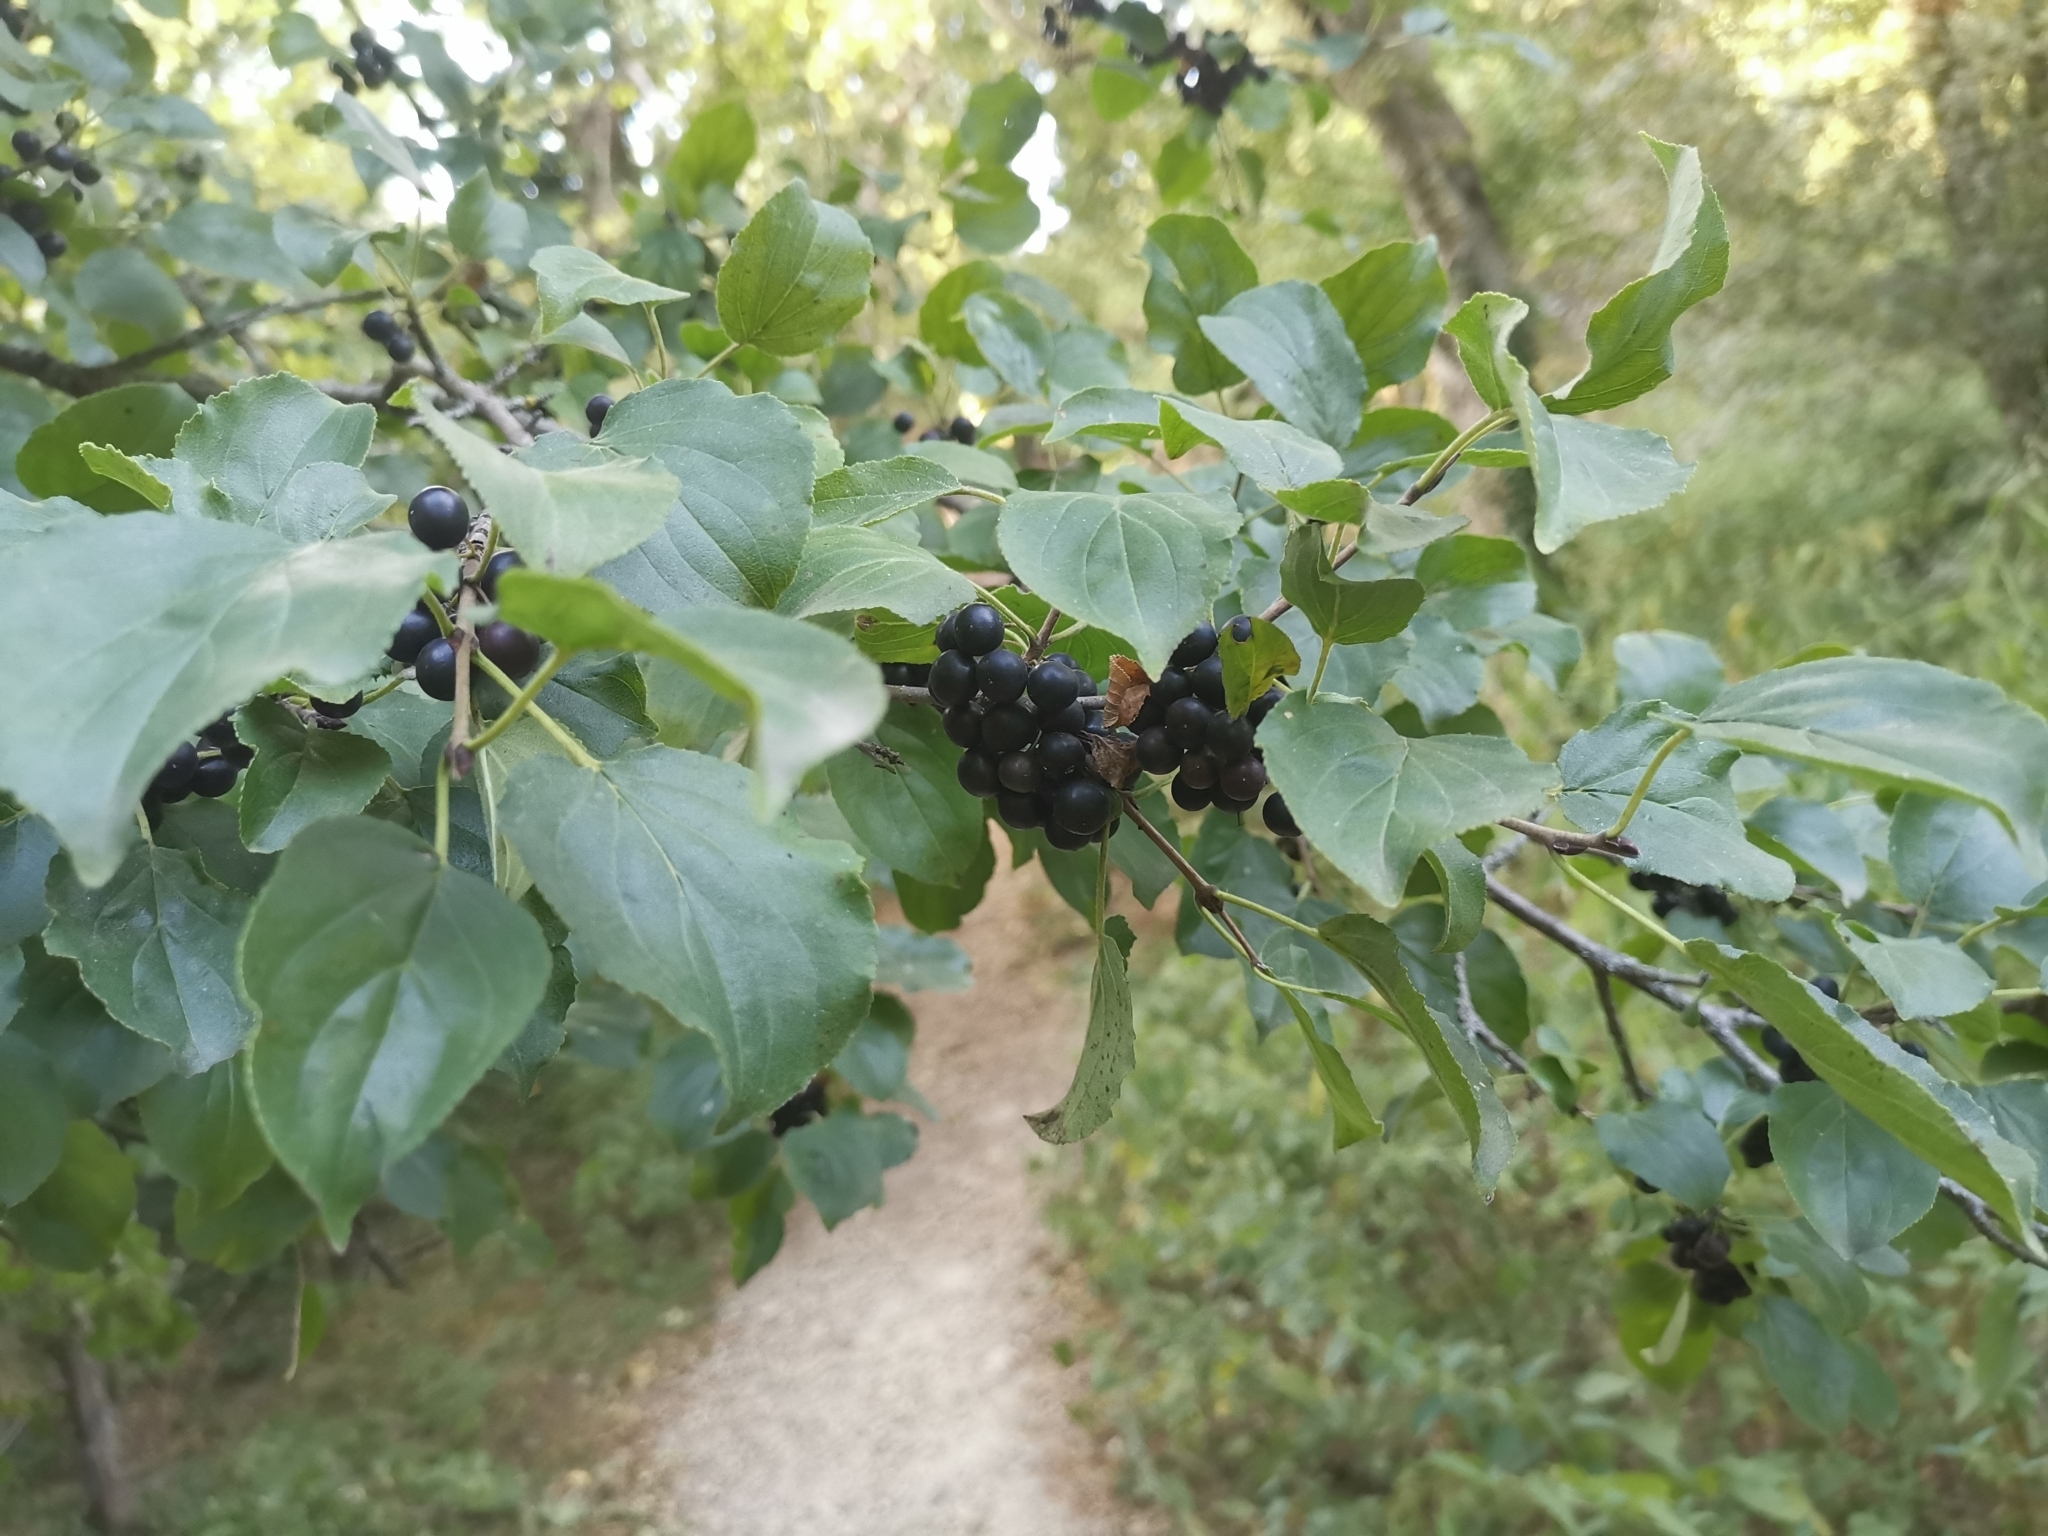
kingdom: Plantae
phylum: Tracheophyta
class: Magnoliopsida
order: Rosales
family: Rhamnaceae
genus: Rhamnus
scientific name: Rhamnus cathartica
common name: Common buckthorn
